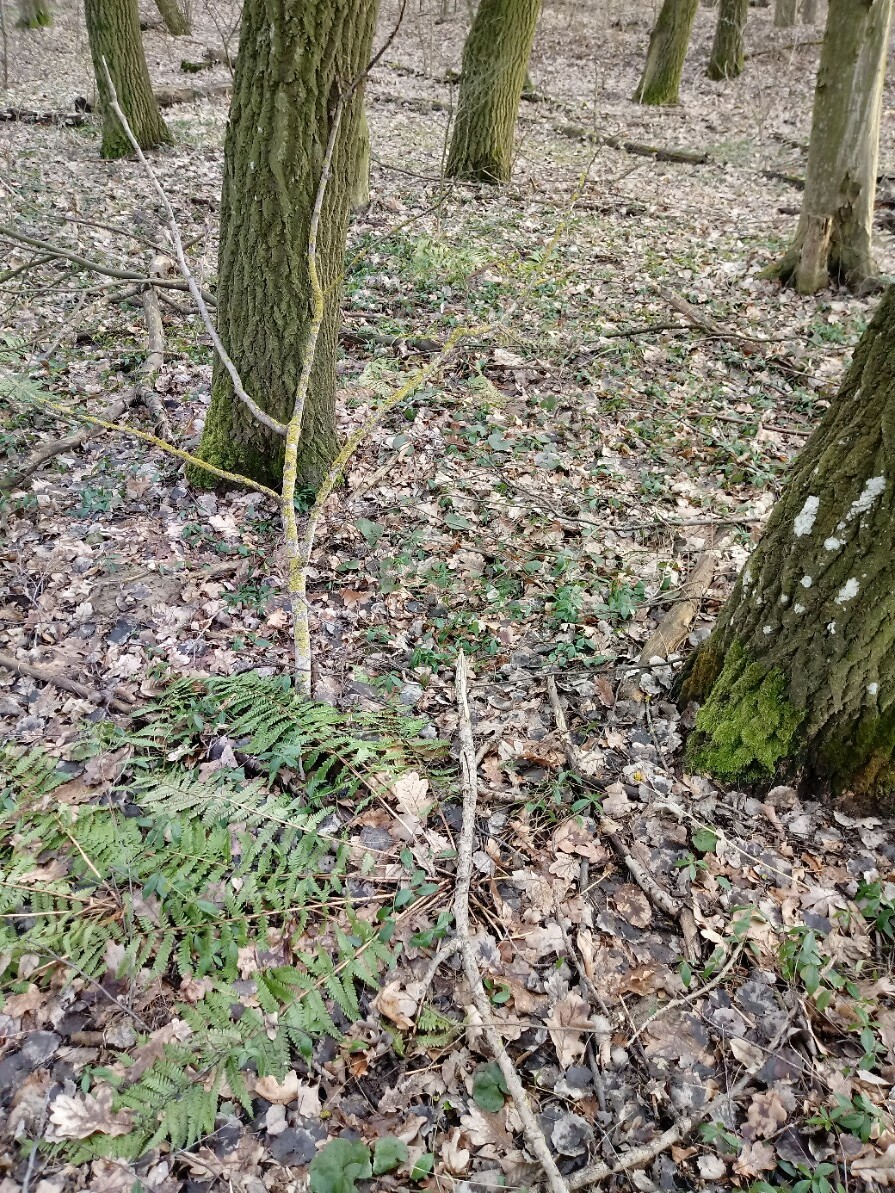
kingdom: Plantae
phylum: Tracheophyta
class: Polypodiopsida
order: Polypodiales
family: Dryopteridaceae
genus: Dryopteris
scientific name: Dryopteris filix-mas
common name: Male fern
